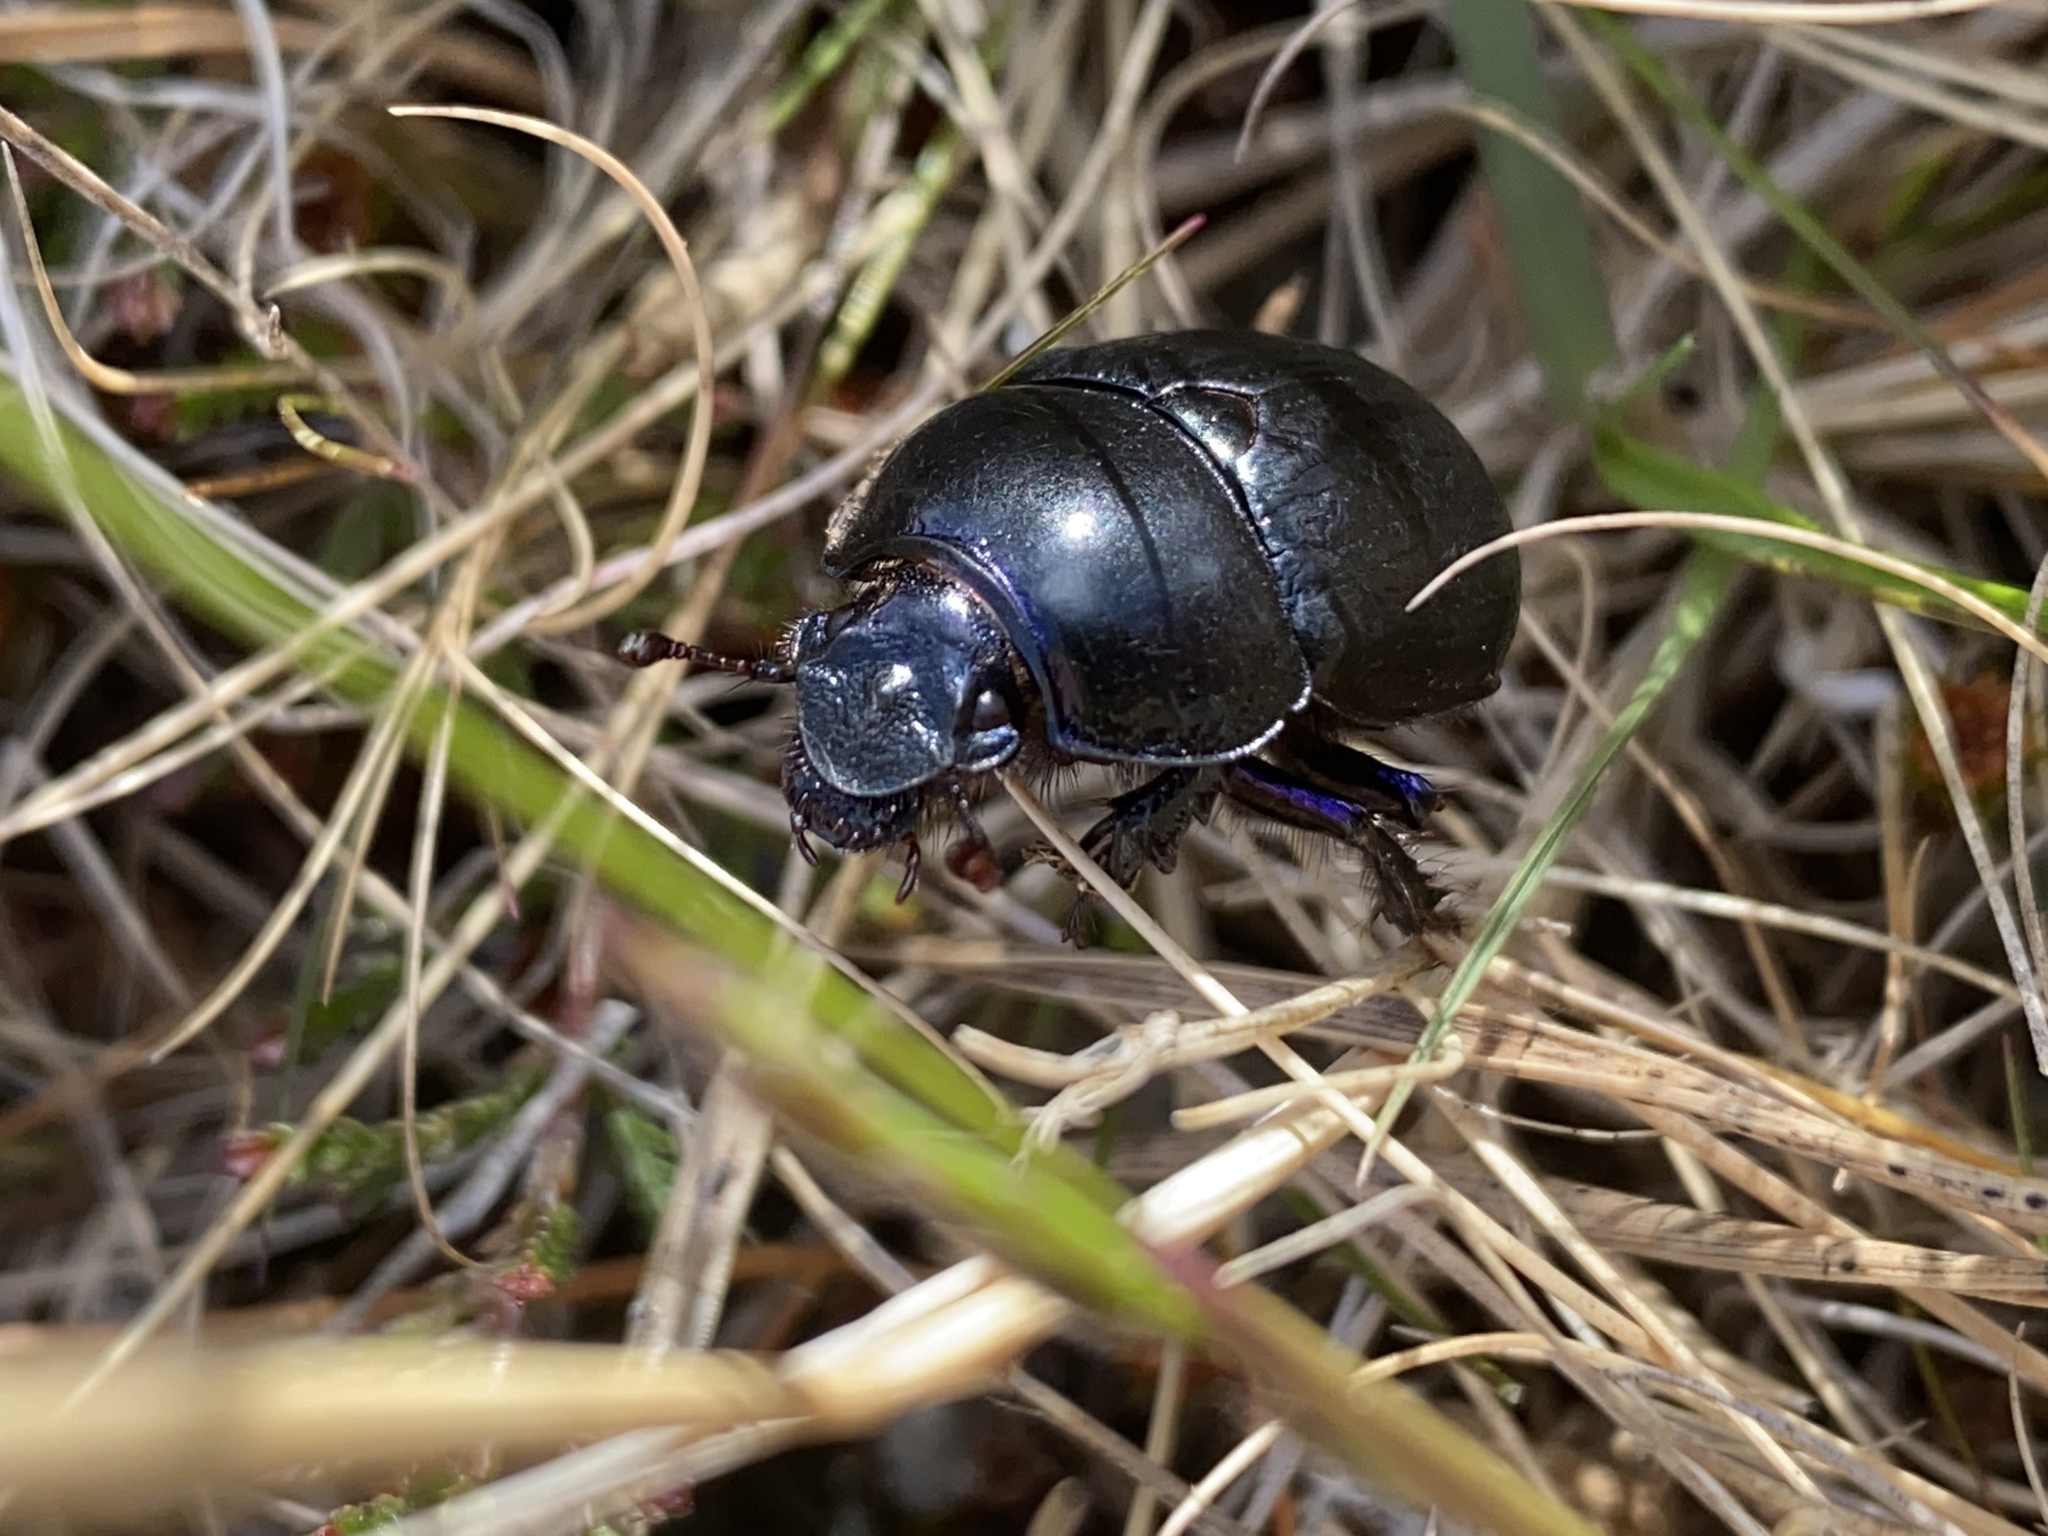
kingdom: Animalia
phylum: Arthropoda
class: Insecta
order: Coleoptera
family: Geotrupidae
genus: Anoplotrupes
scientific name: Anoplotrupes stercorosus
